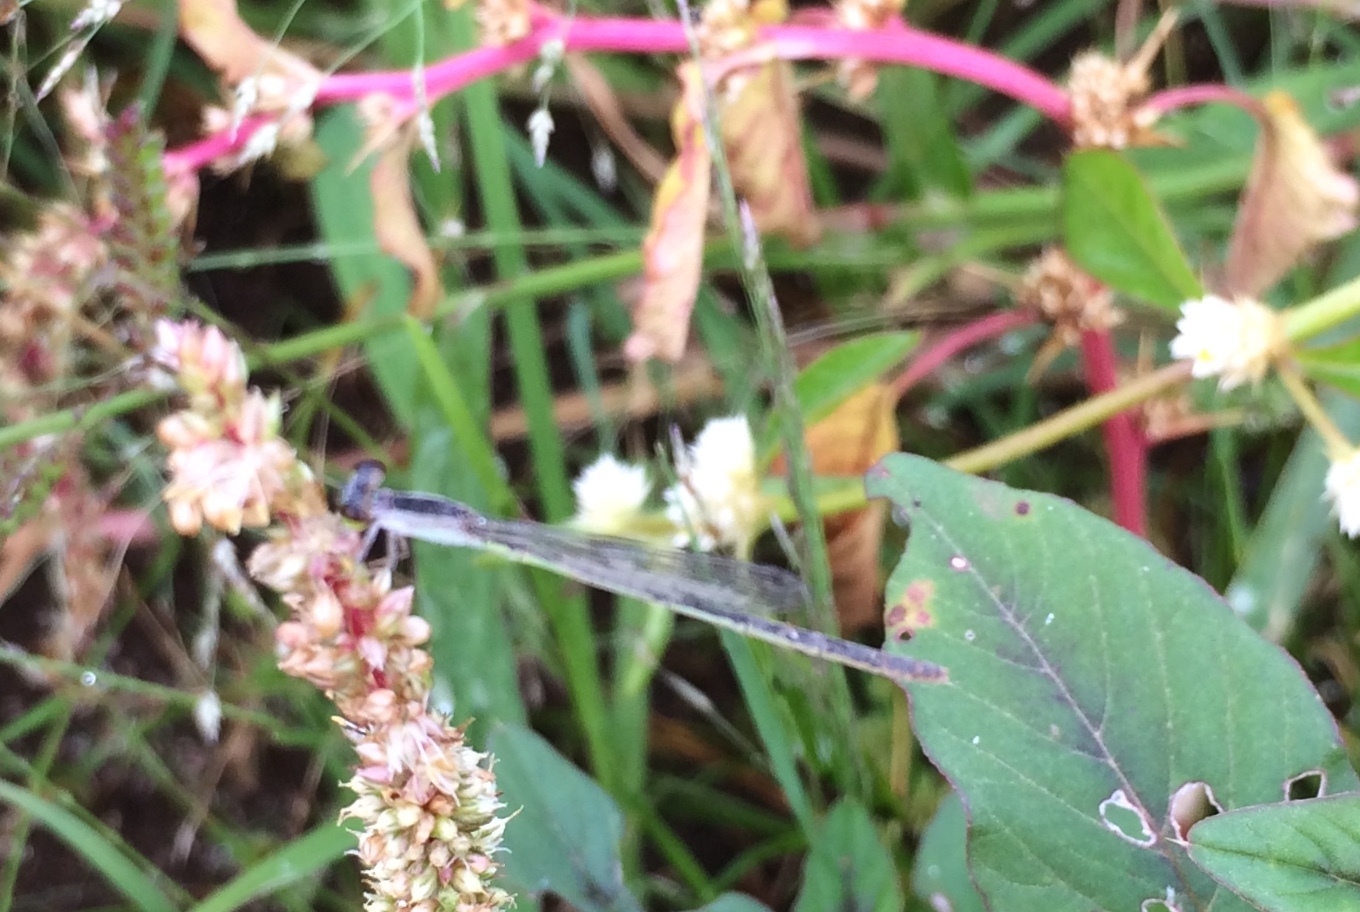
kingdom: Animalia
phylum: Arthropoda
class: Insecta
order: Odonata
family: Coenagrionidae
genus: Agriocnemis
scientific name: Agriocnemis pygmaea
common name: Pygmy wisp
